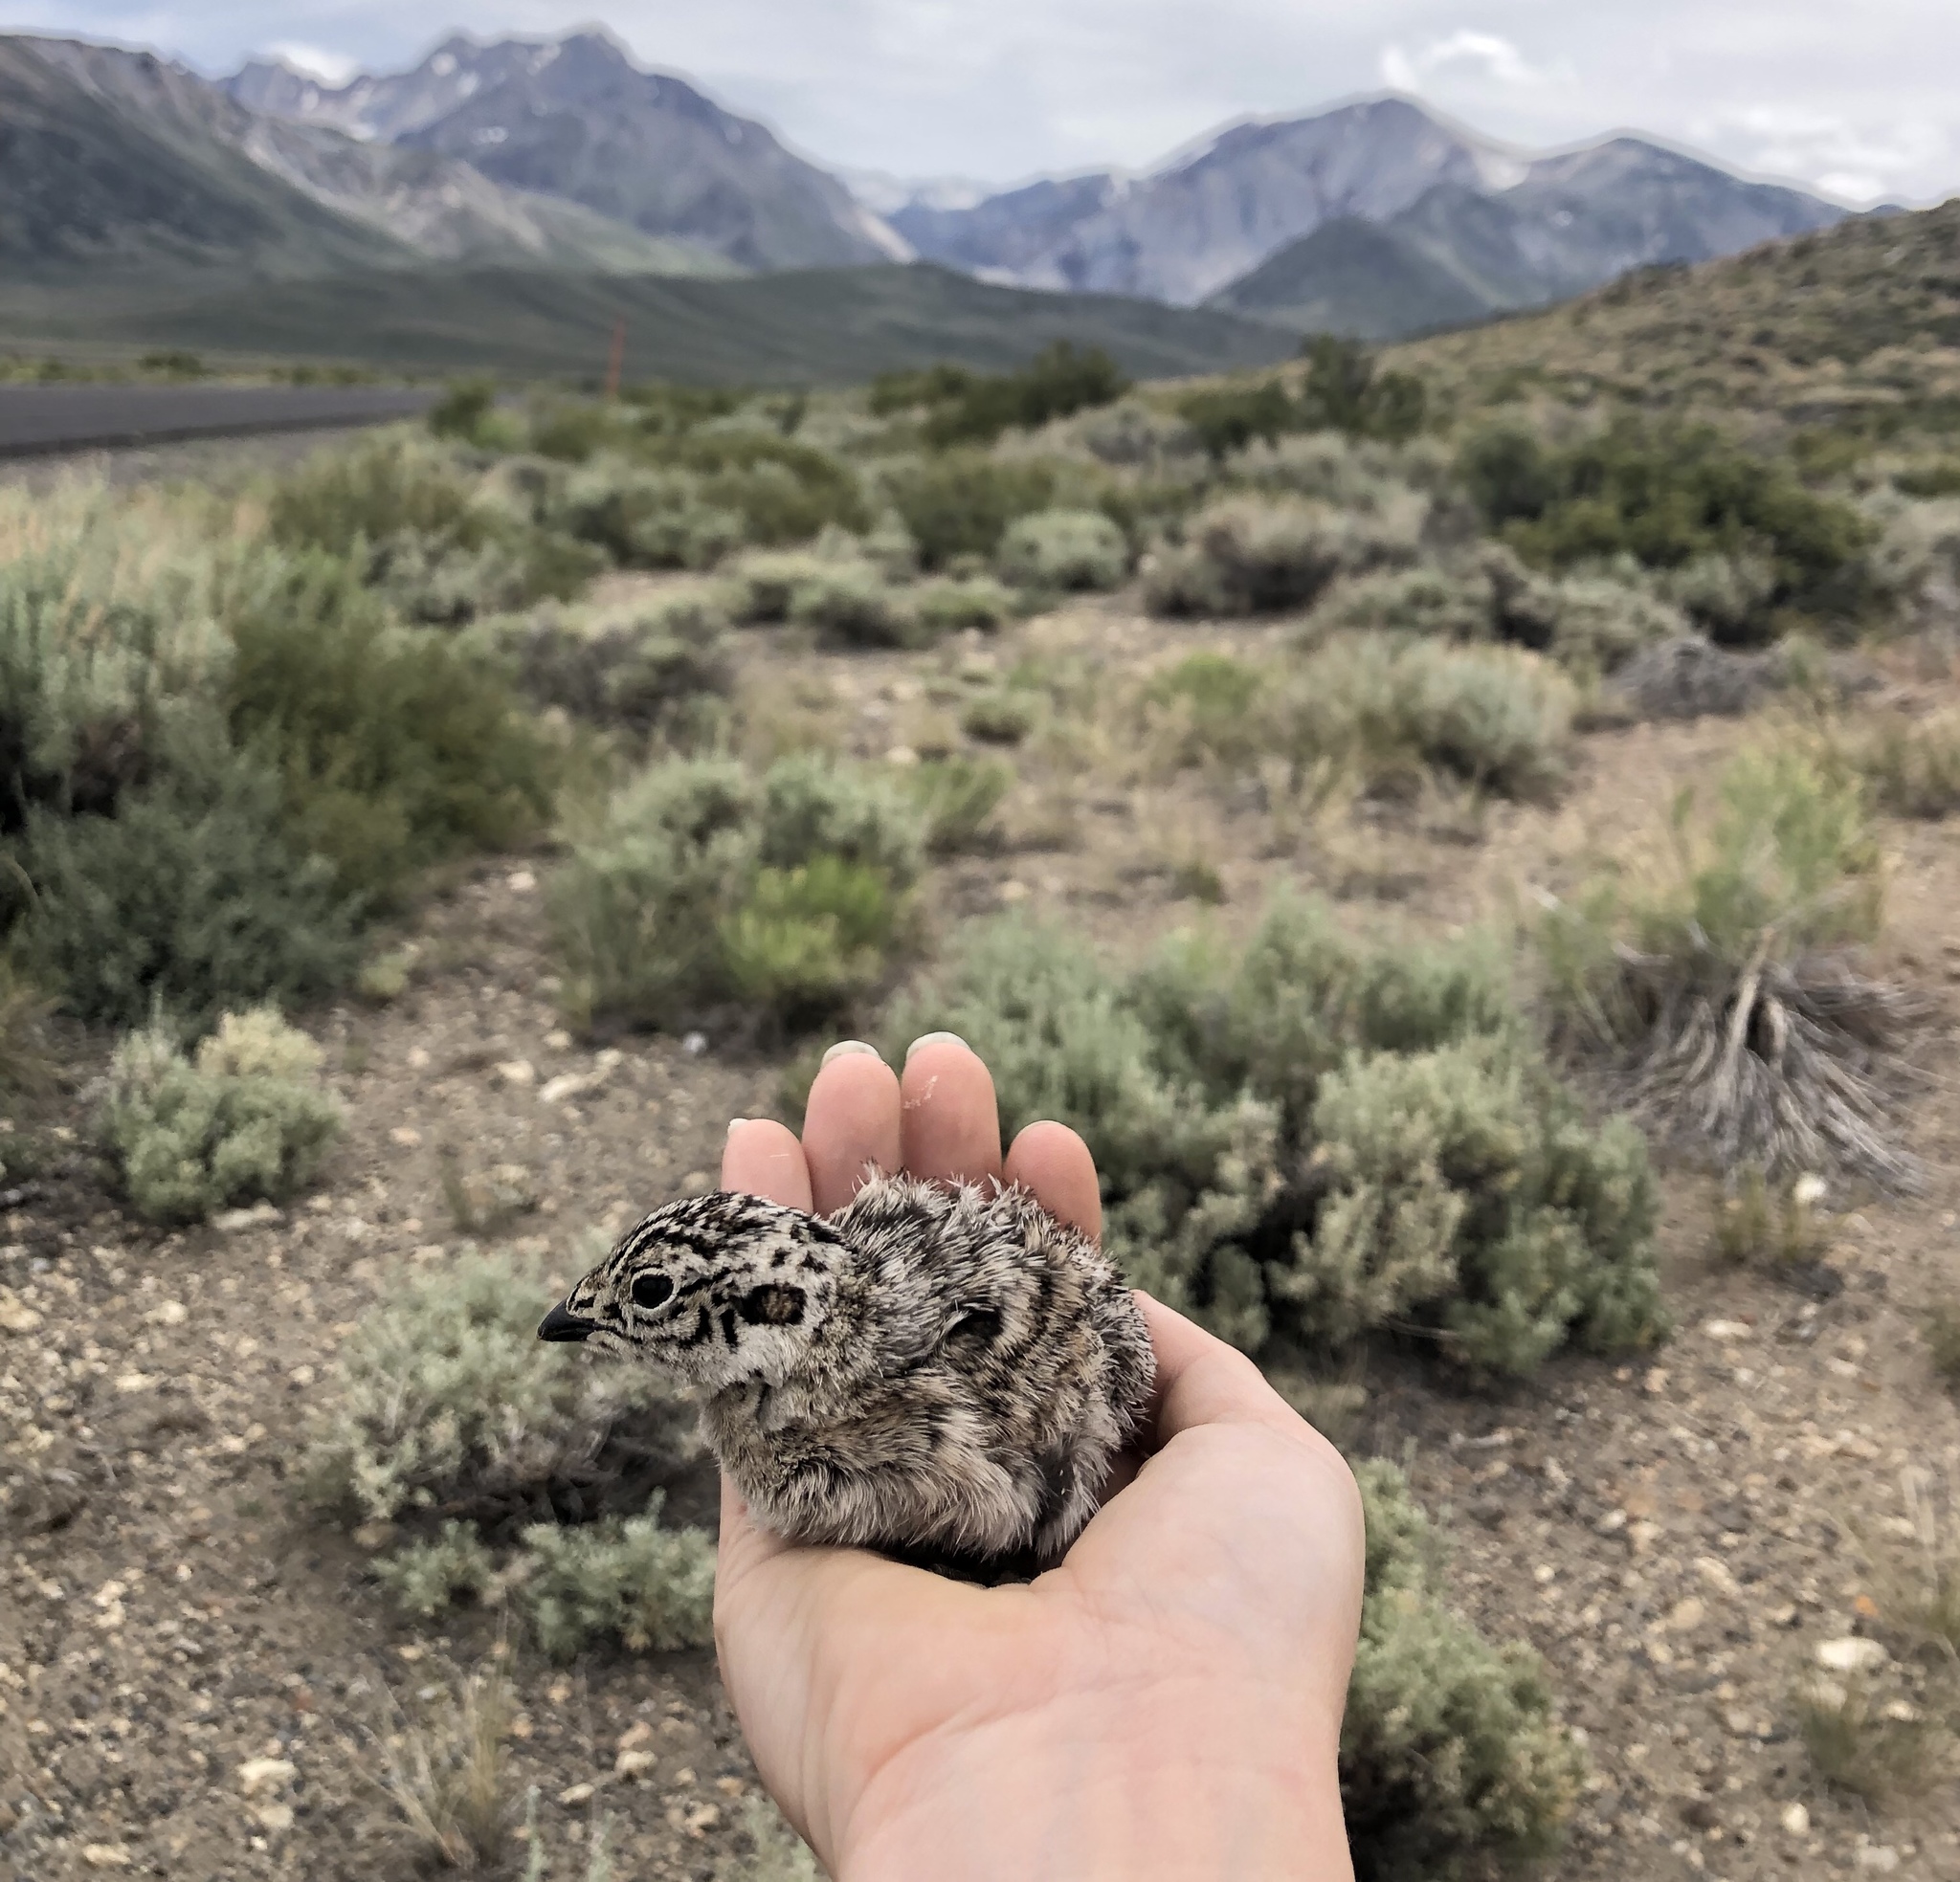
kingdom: Animalia
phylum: Chordata
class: Aves
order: Galliformes
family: Phasianidae
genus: Centrocercus
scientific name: Centrocercus urophasianus
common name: Sage grouse
